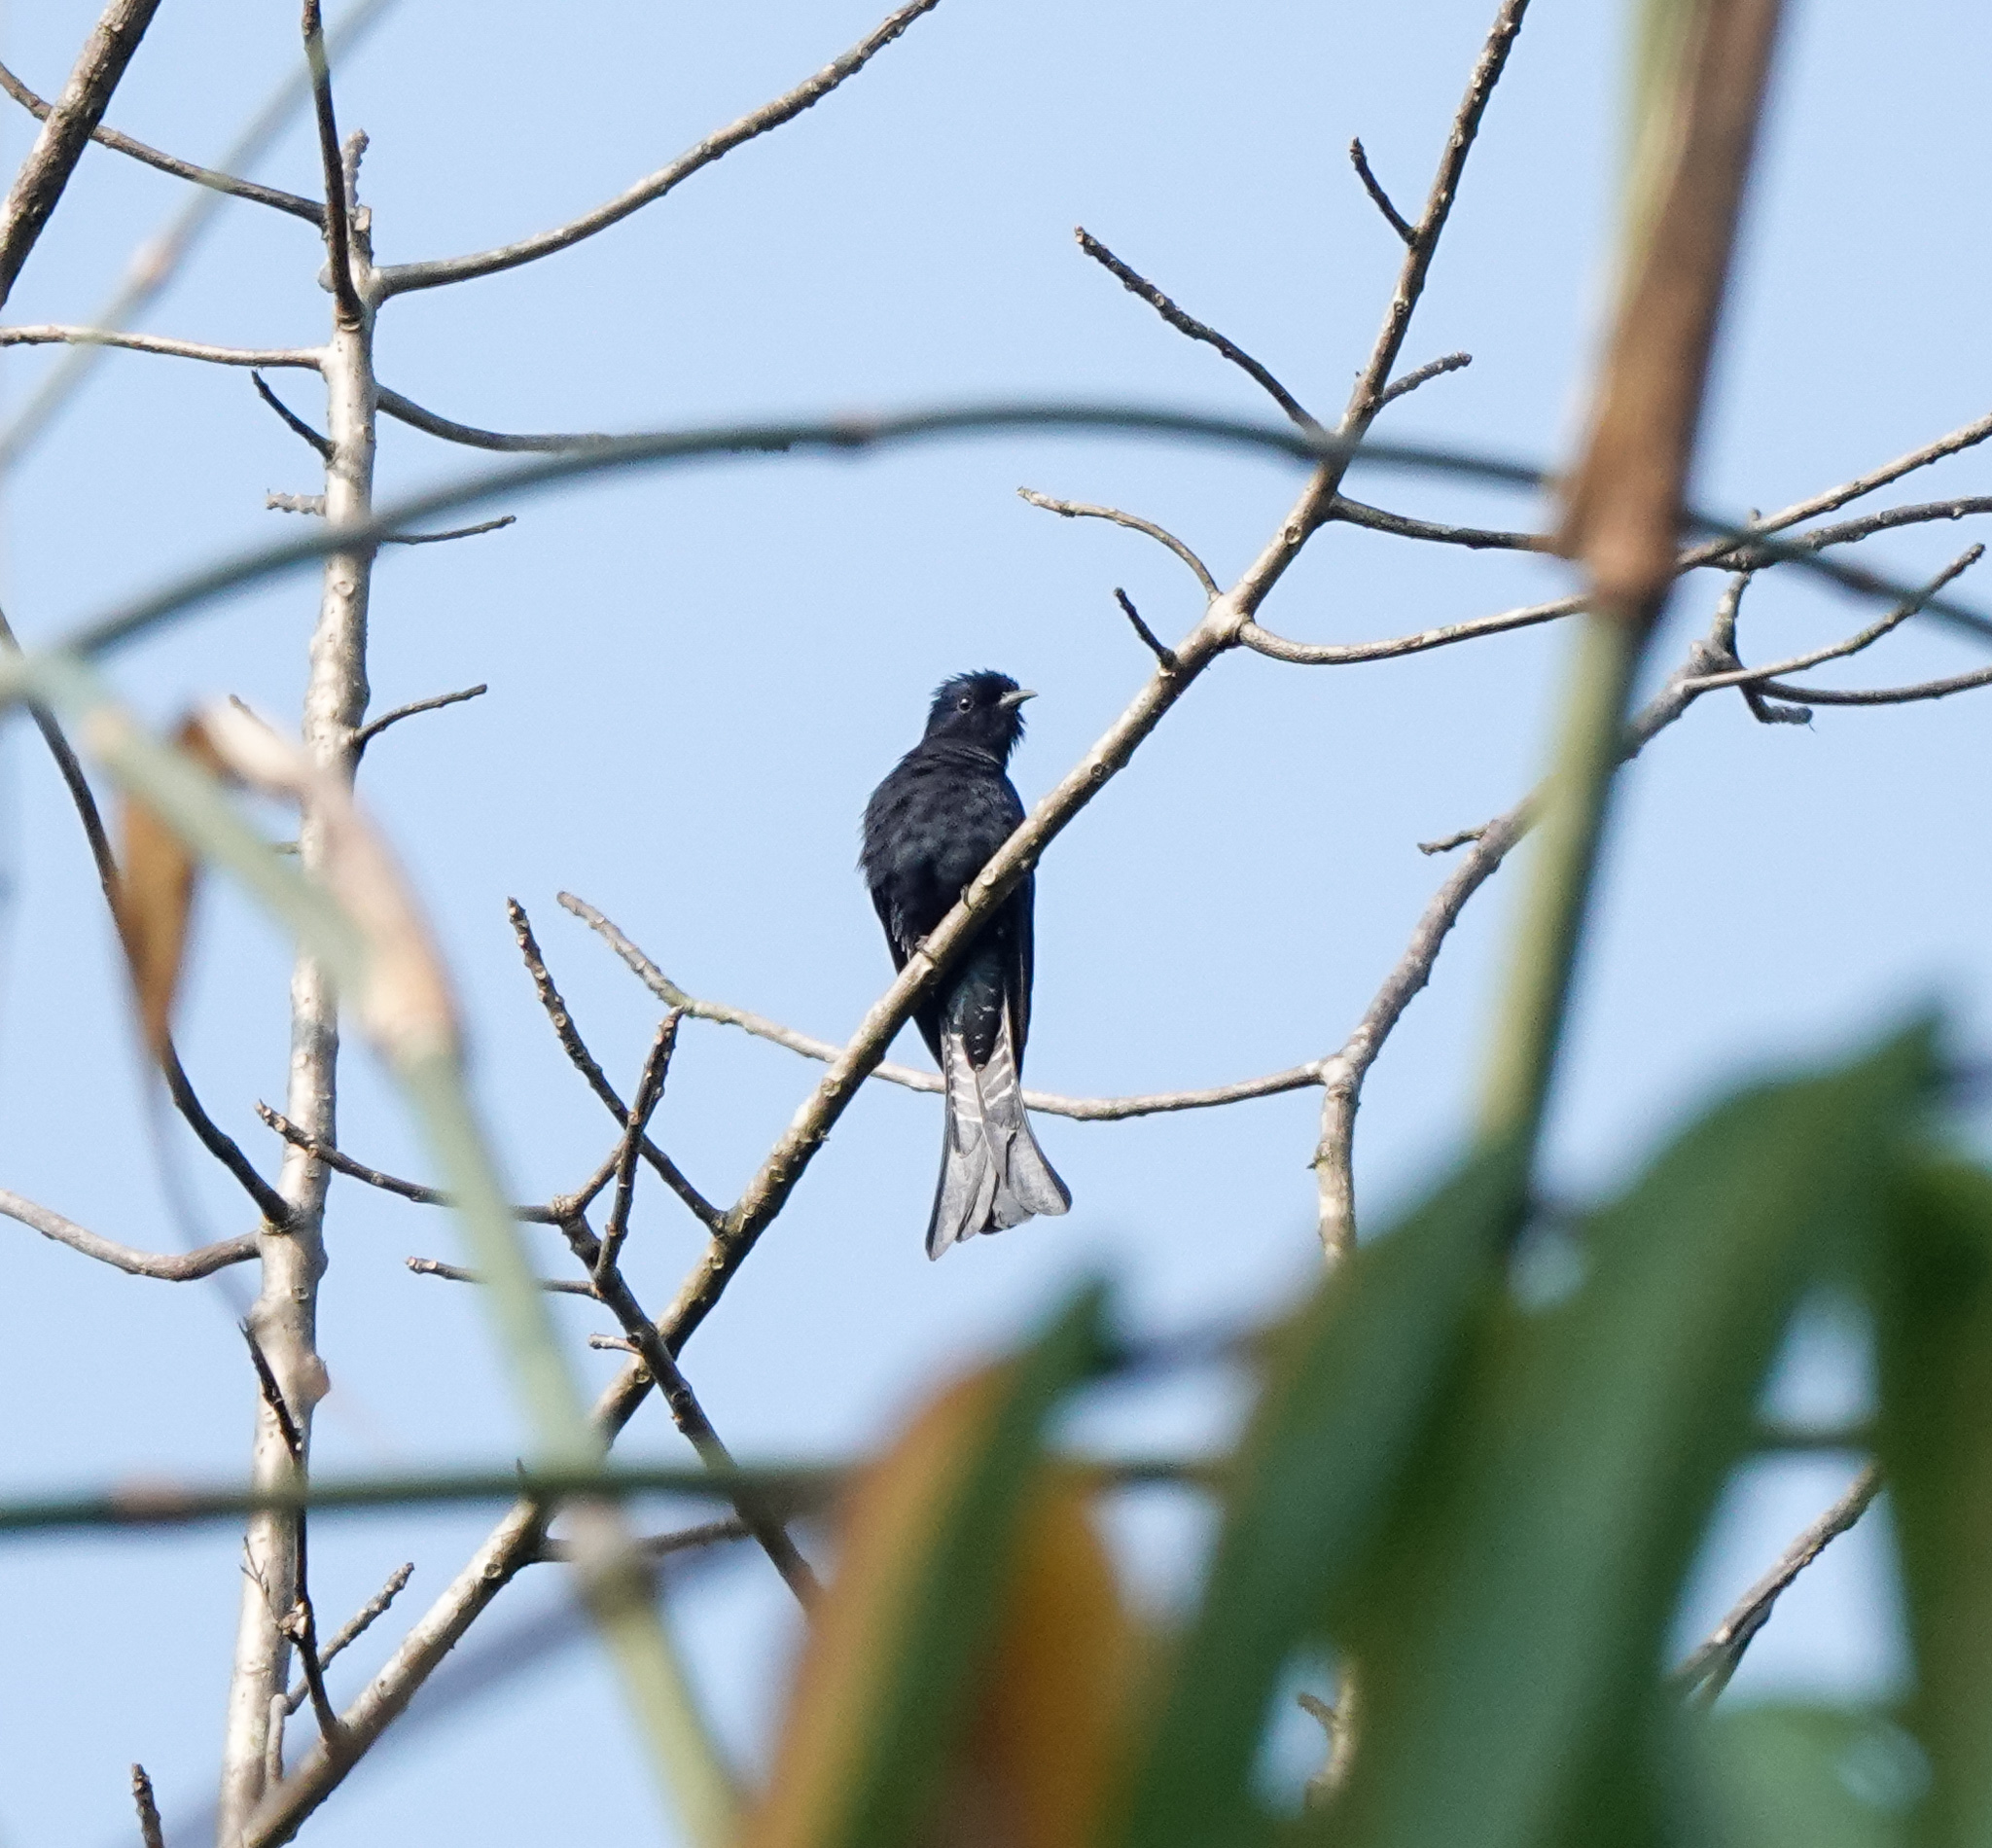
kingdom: Animalia
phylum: Chordata
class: Aves
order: Cuculiformes
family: Cuculidae
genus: Surniculus
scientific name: Surniculus lugubris
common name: Square-tailed drongo-cuckoo
